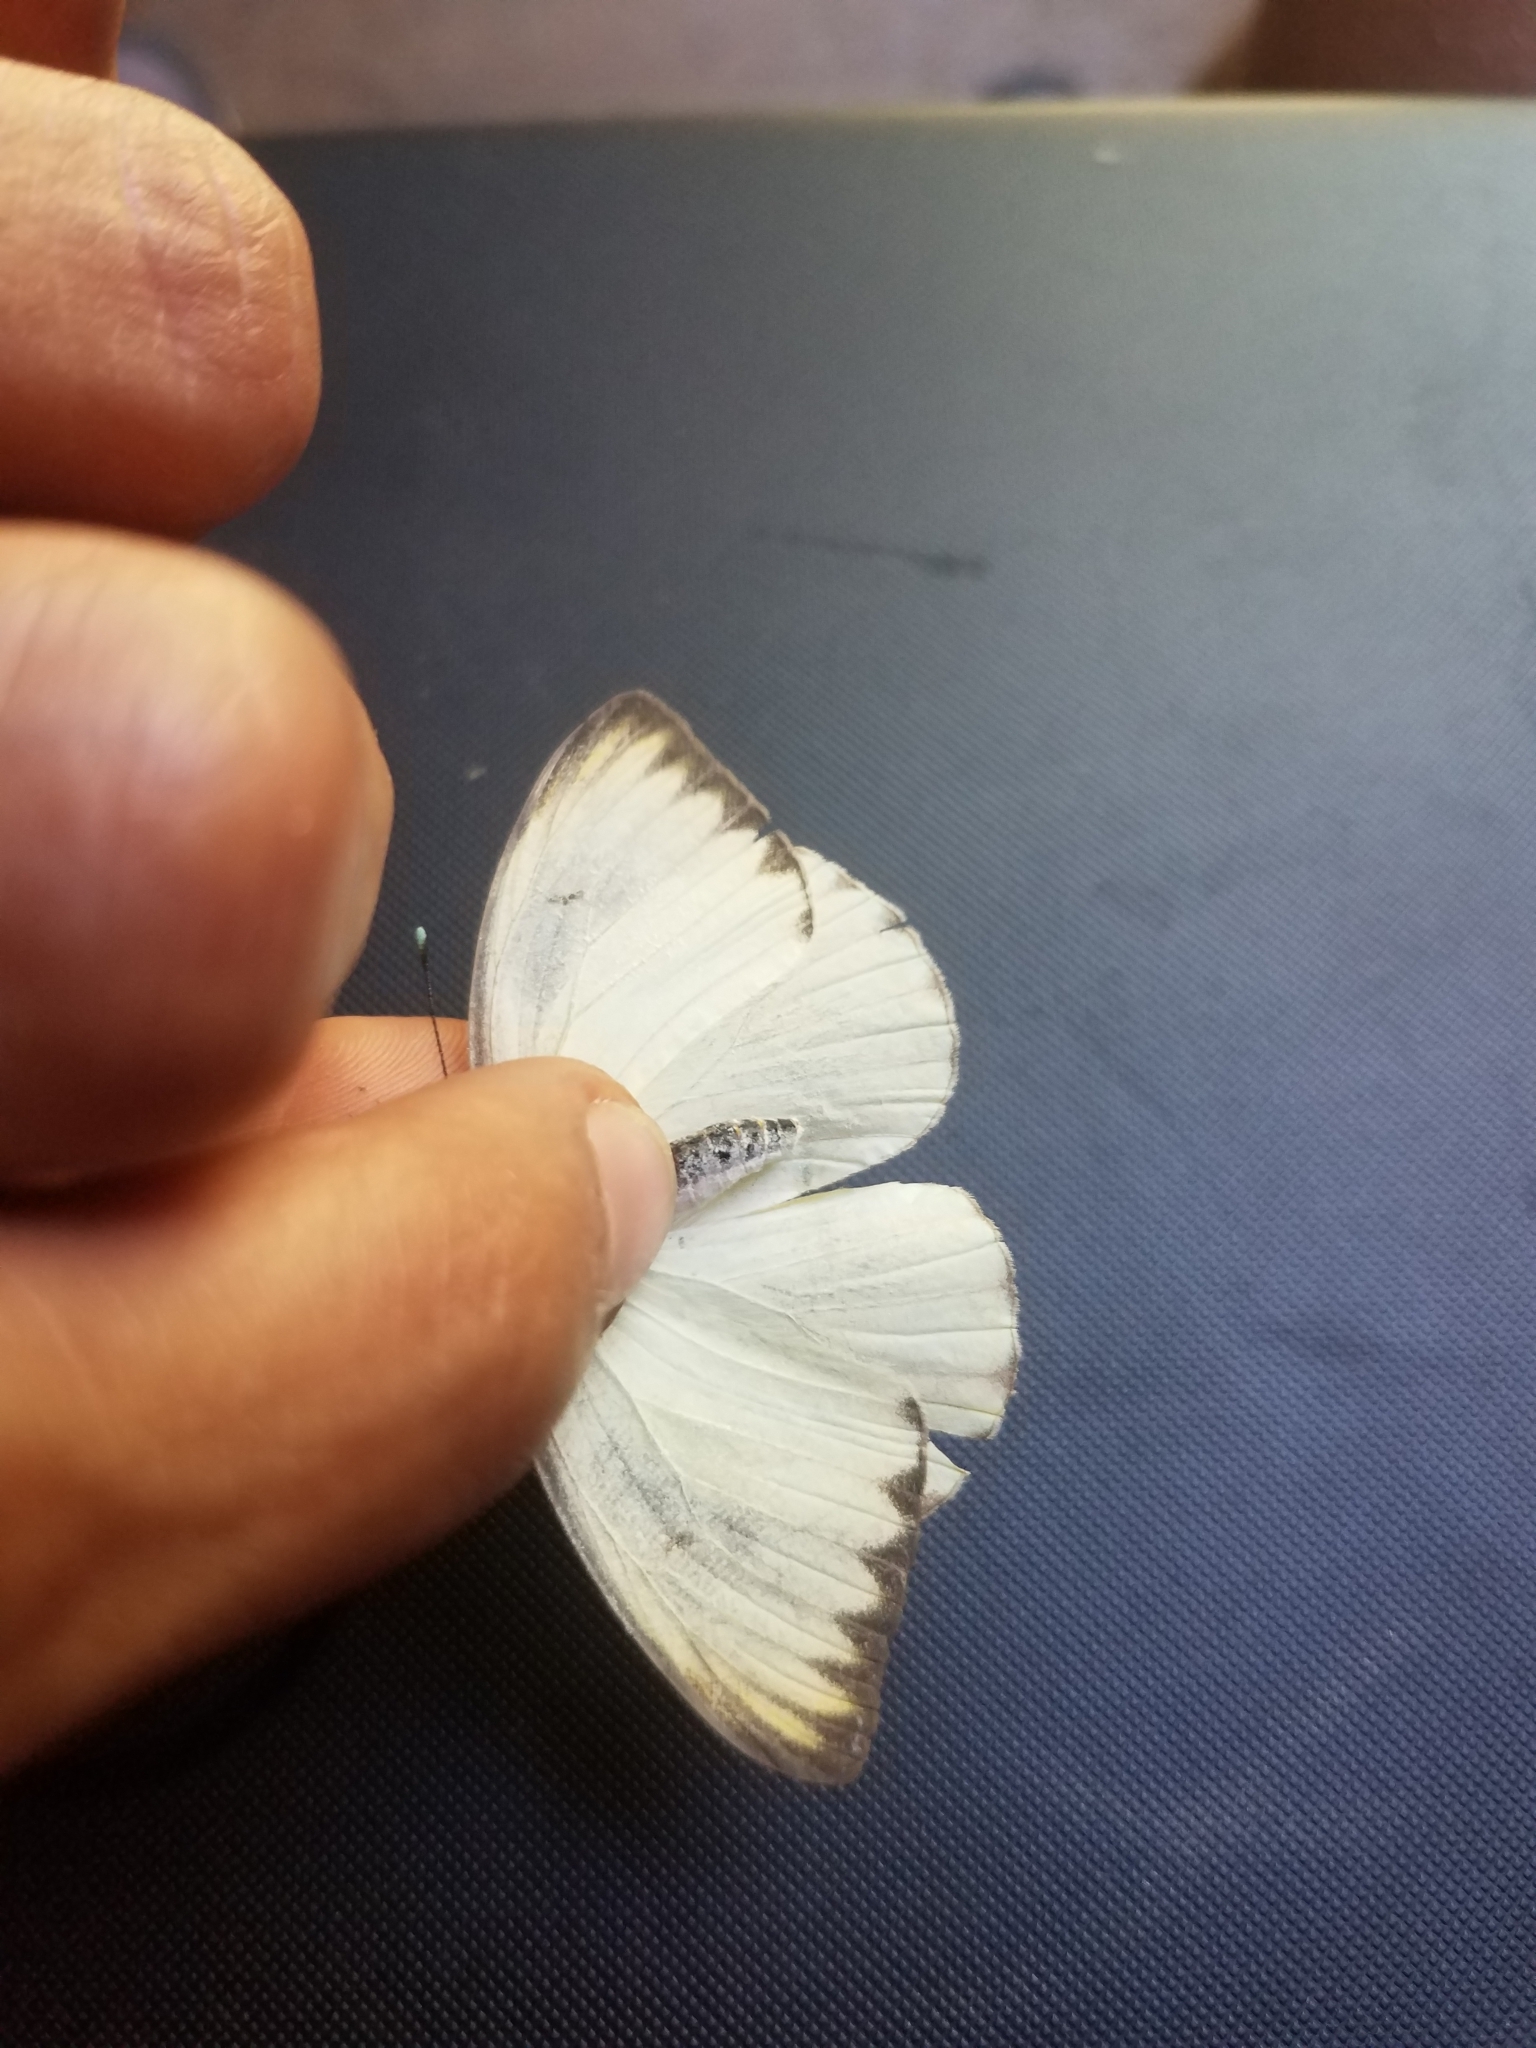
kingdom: Animalia
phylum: Arthropoda
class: Insecta
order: Lepidoptera
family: Pieridae
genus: Ascia
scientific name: Ascia monuste
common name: Great southern white
